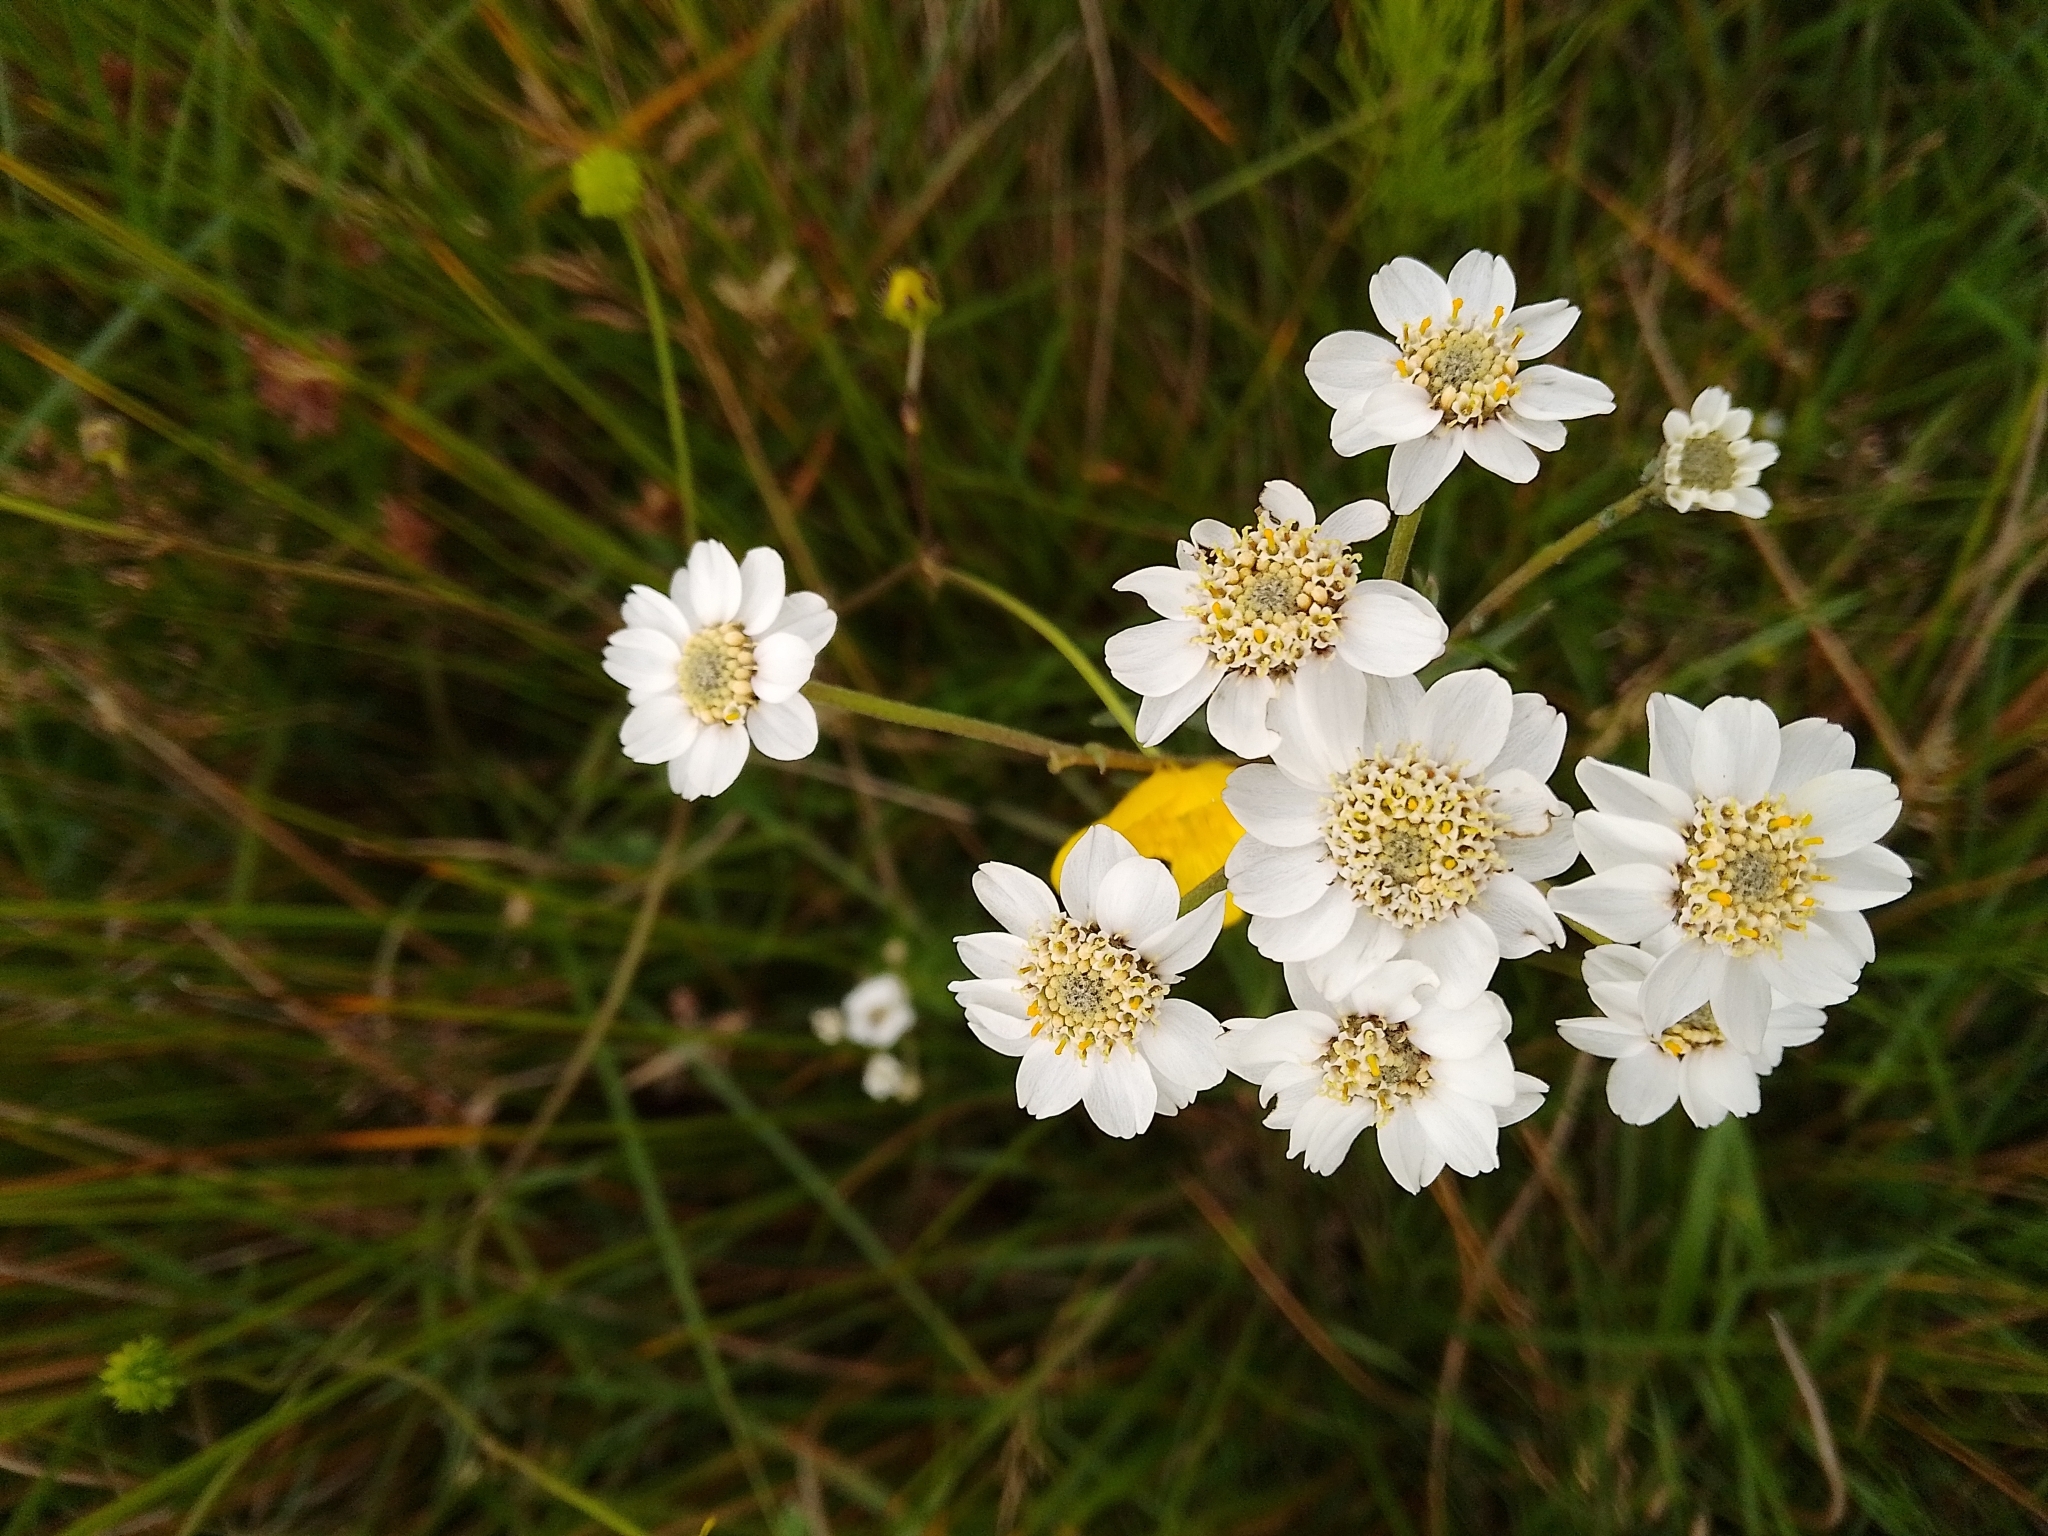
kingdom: Plantae
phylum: Tracheophyta
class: Magnoliopsida
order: Asterales
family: Asteraceae
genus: Achillea
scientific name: Achillea ptarmica
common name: Sneezeweed
